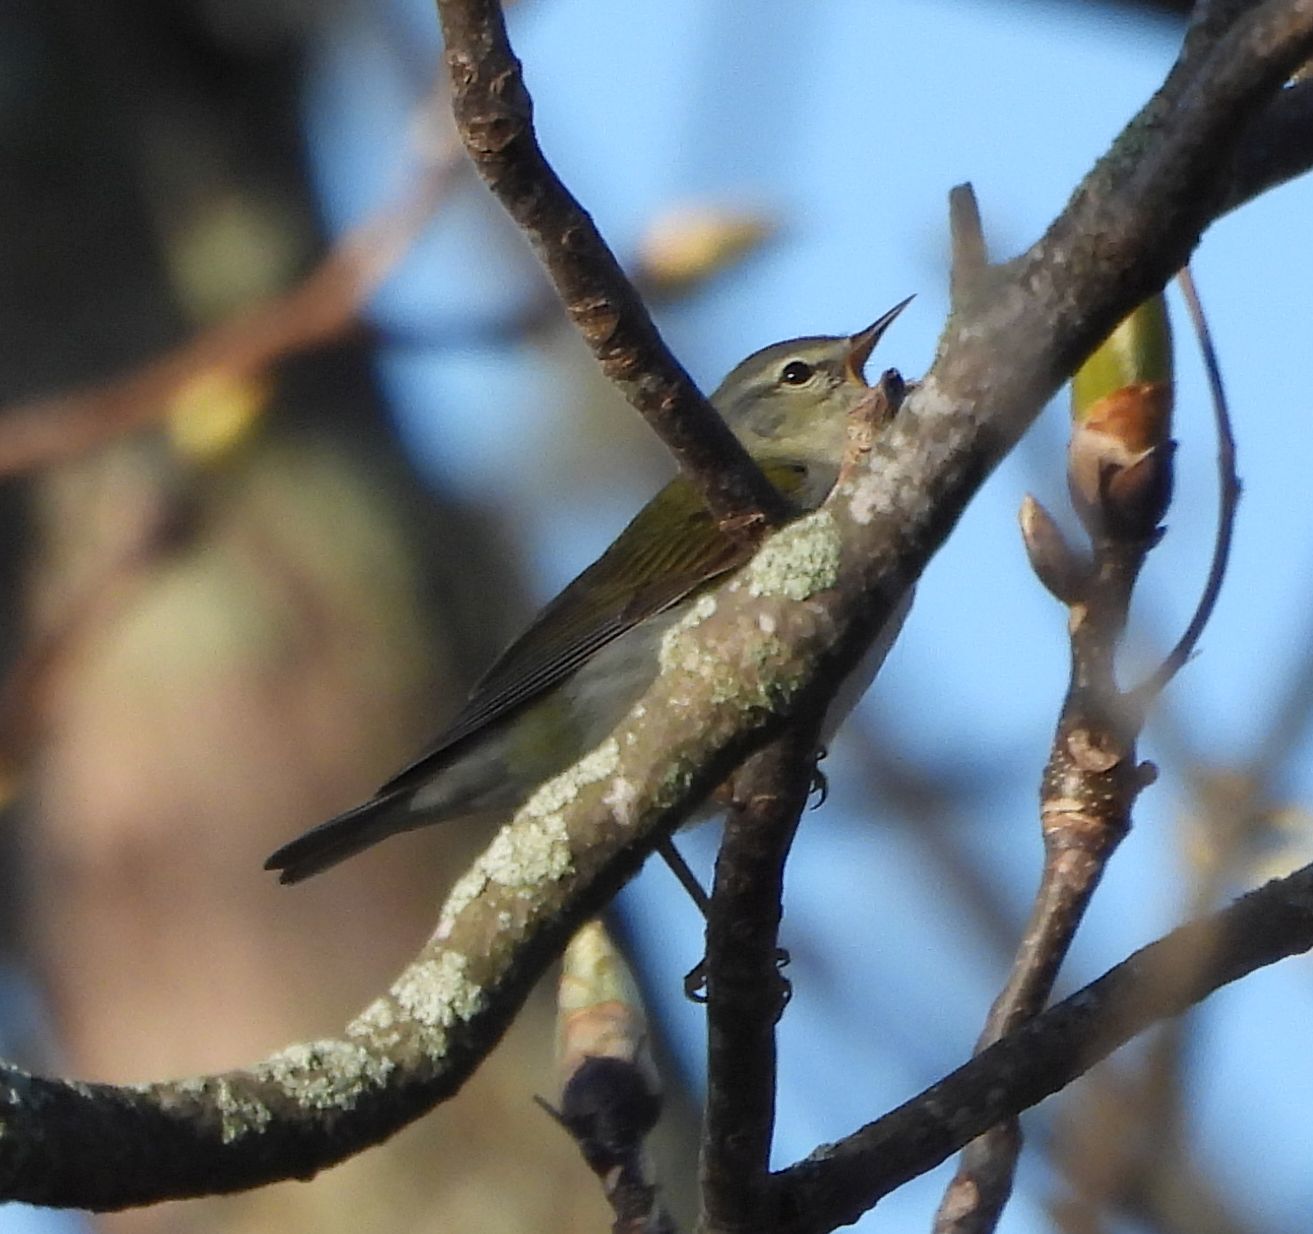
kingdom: Animalia
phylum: Chordata
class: Aves
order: Passeriformes
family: Parulidae
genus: Leiothlypis
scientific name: Leiothlypis peregrina
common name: Tennessee warbler
